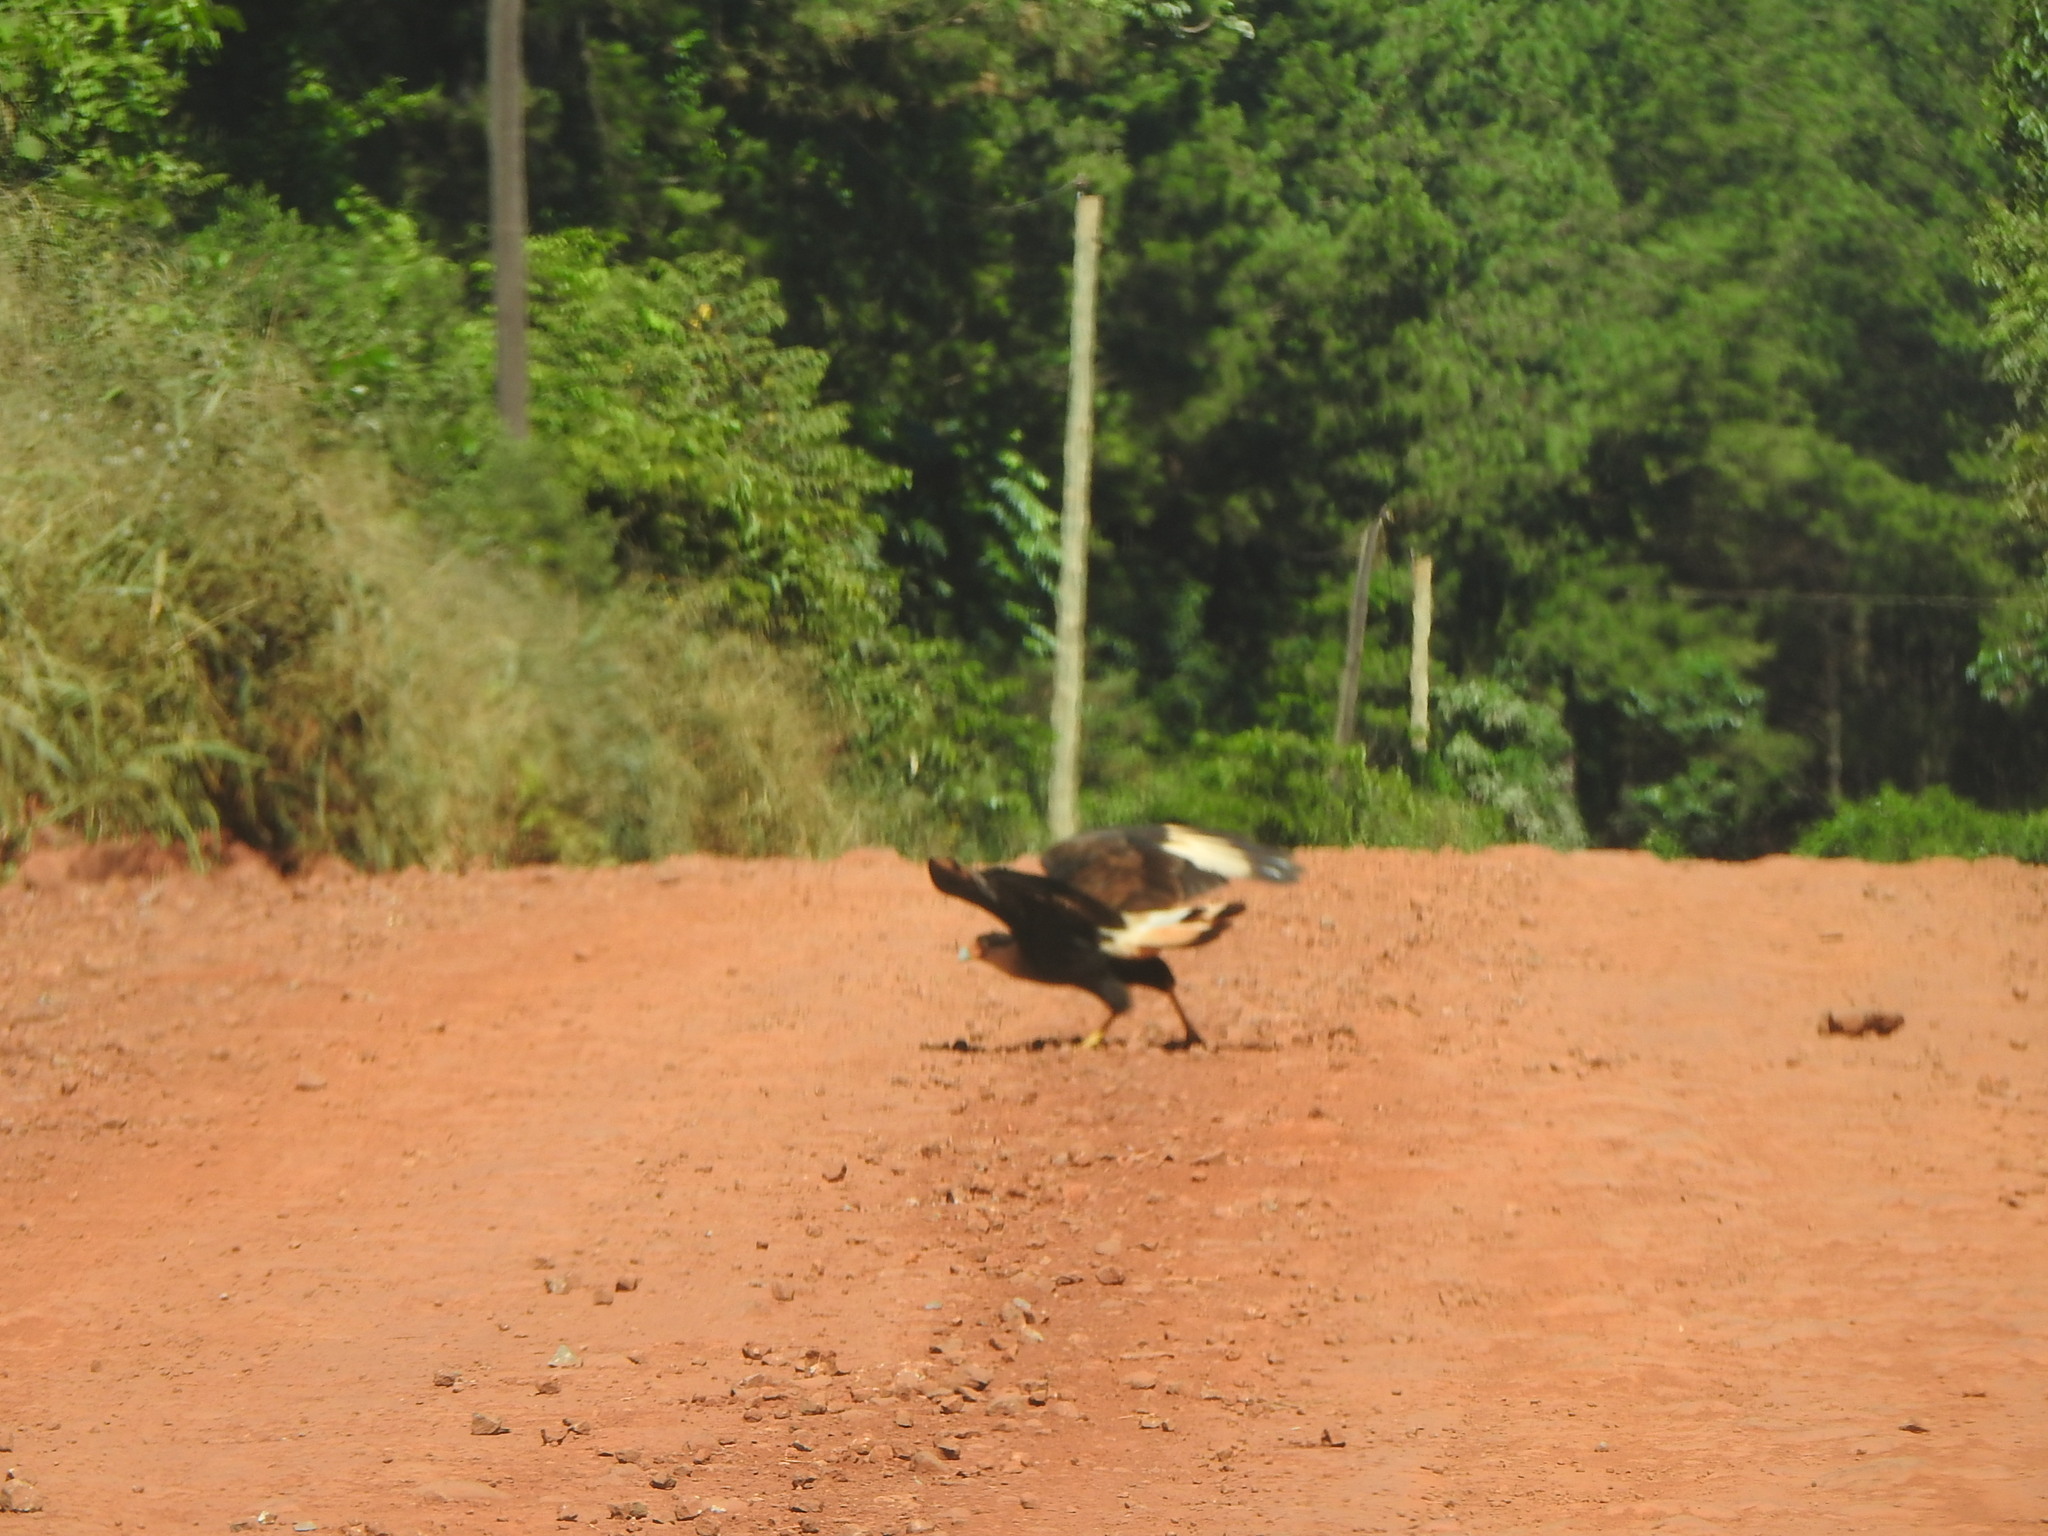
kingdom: Animalia
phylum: Chordata
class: Aves
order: Falconiformes
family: Falconidae
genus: Caracara
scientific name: Caracara plancus
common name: Southern caracara
